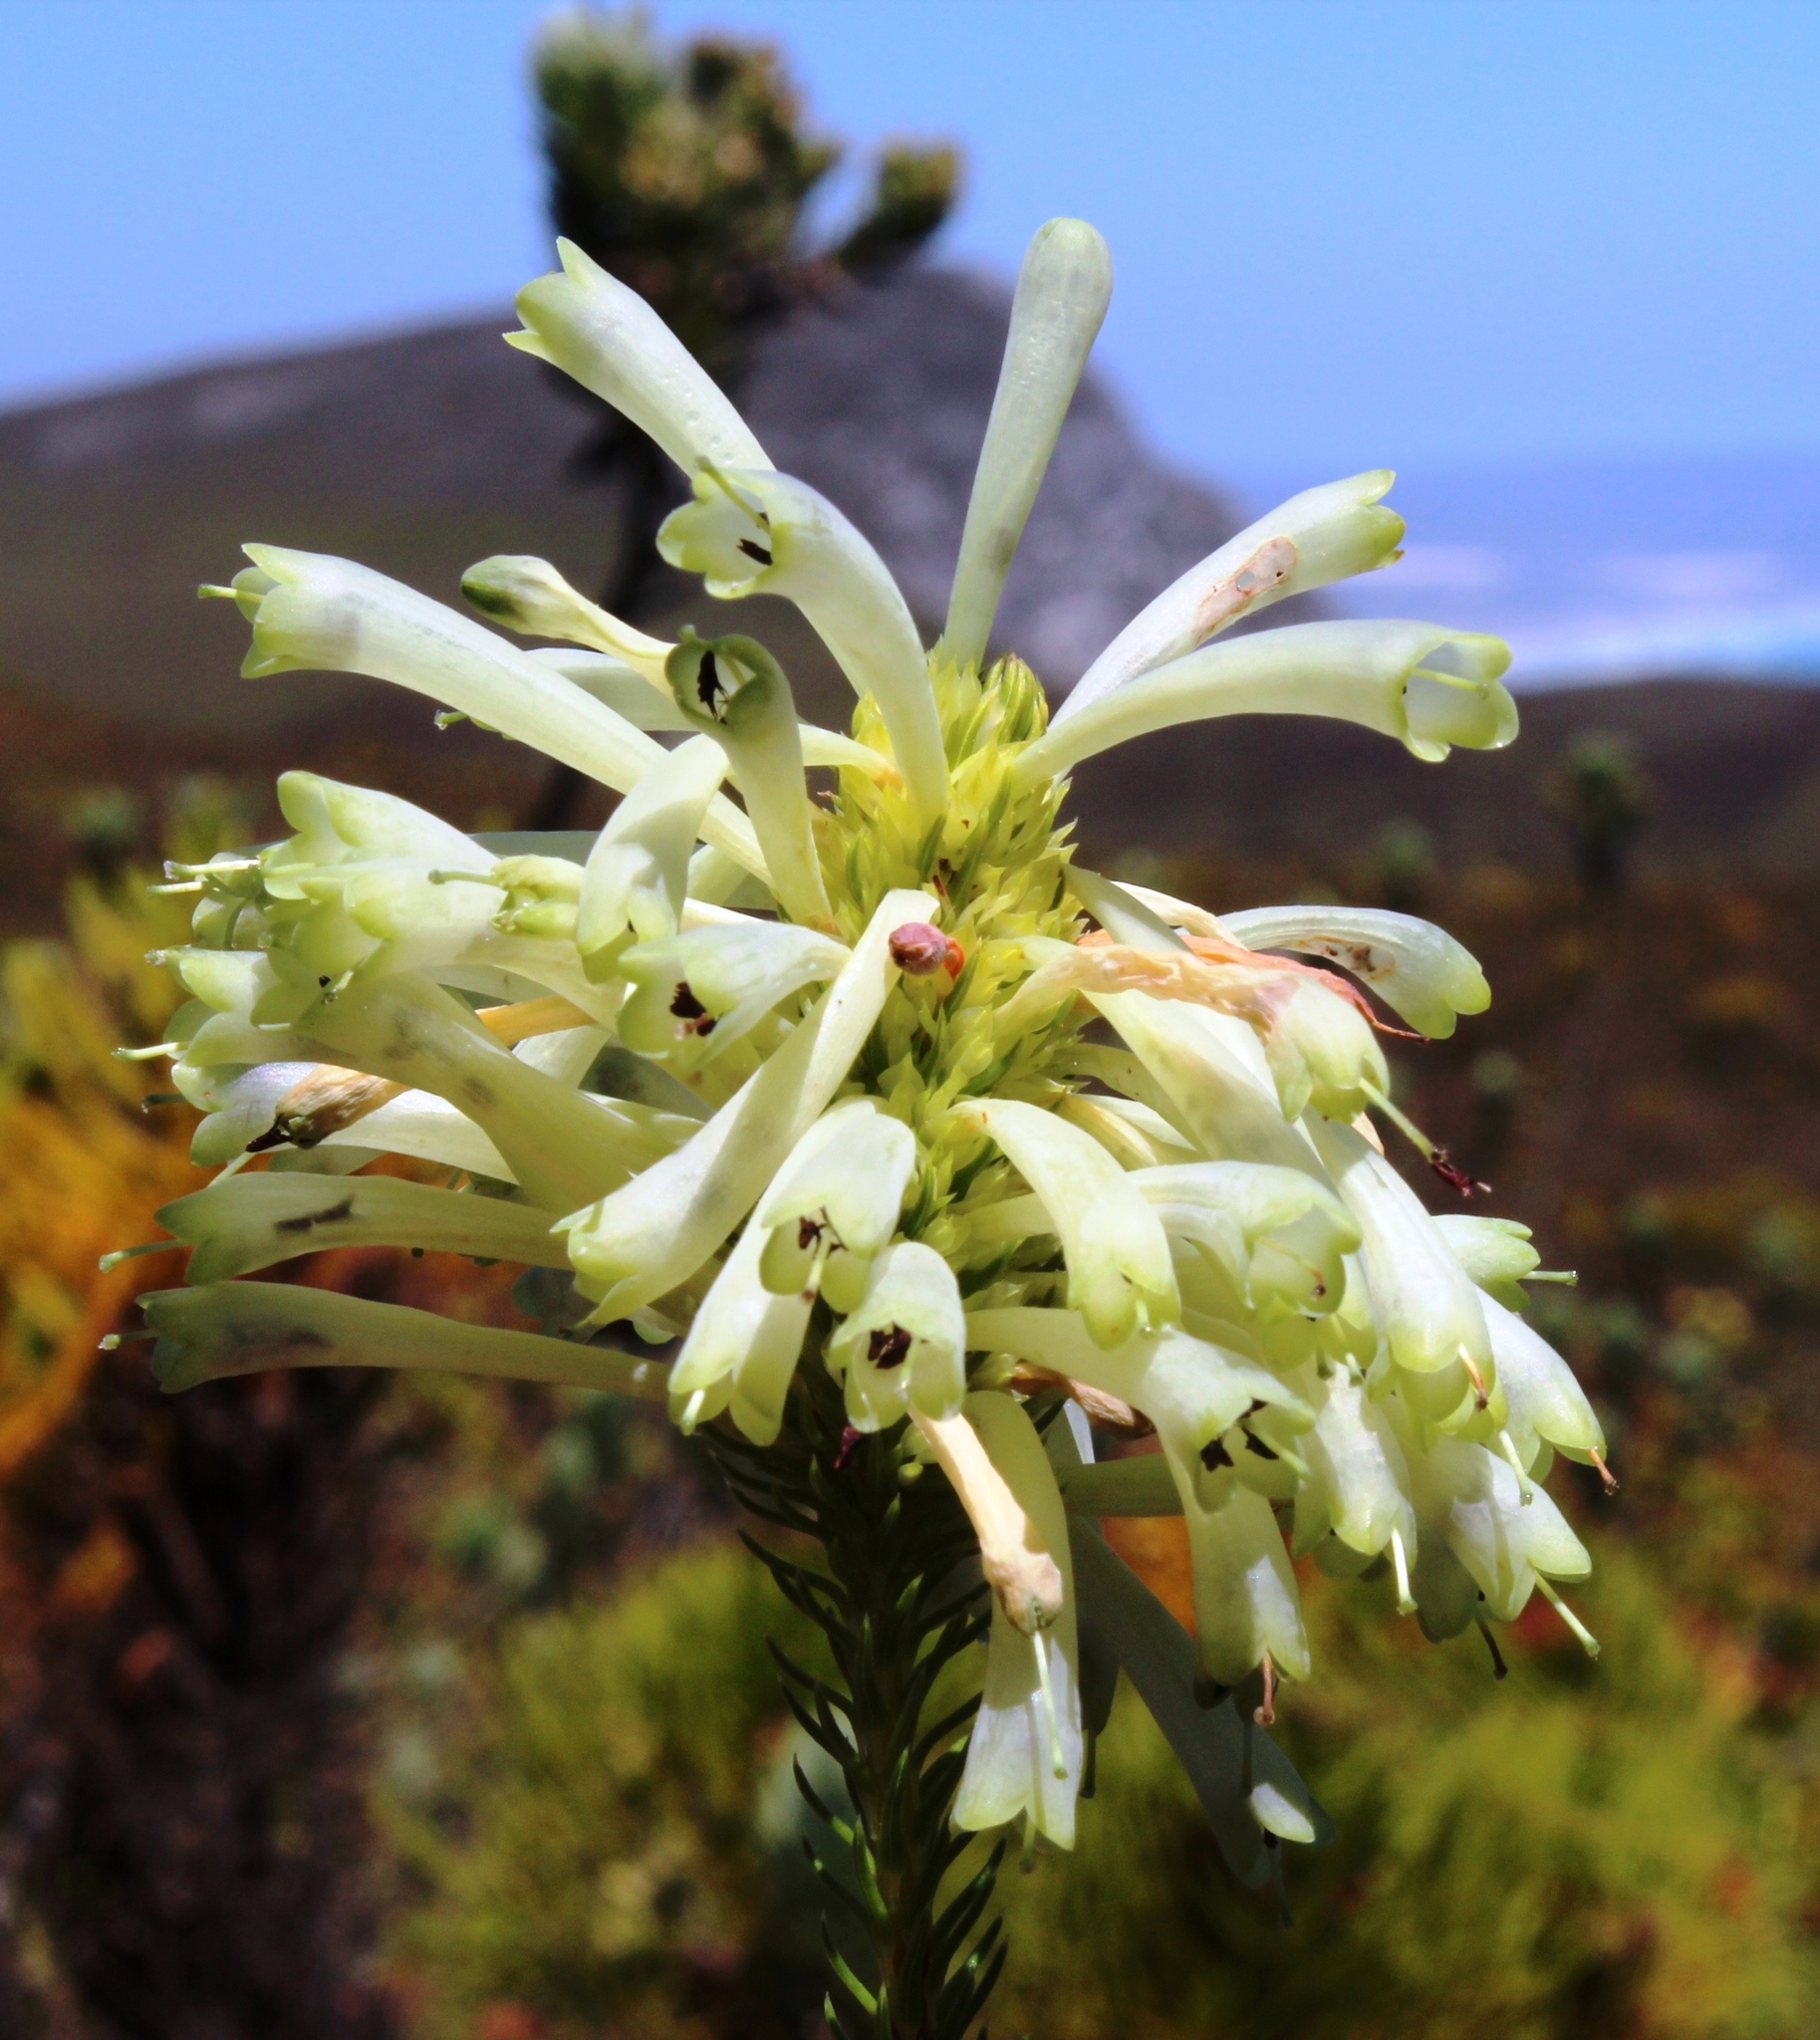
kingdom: Plantae
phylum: Tracheophyta
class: Magnoliopsida
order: Ericales
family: Ericaceae
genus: Erica
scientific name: Erica sessiliflora
